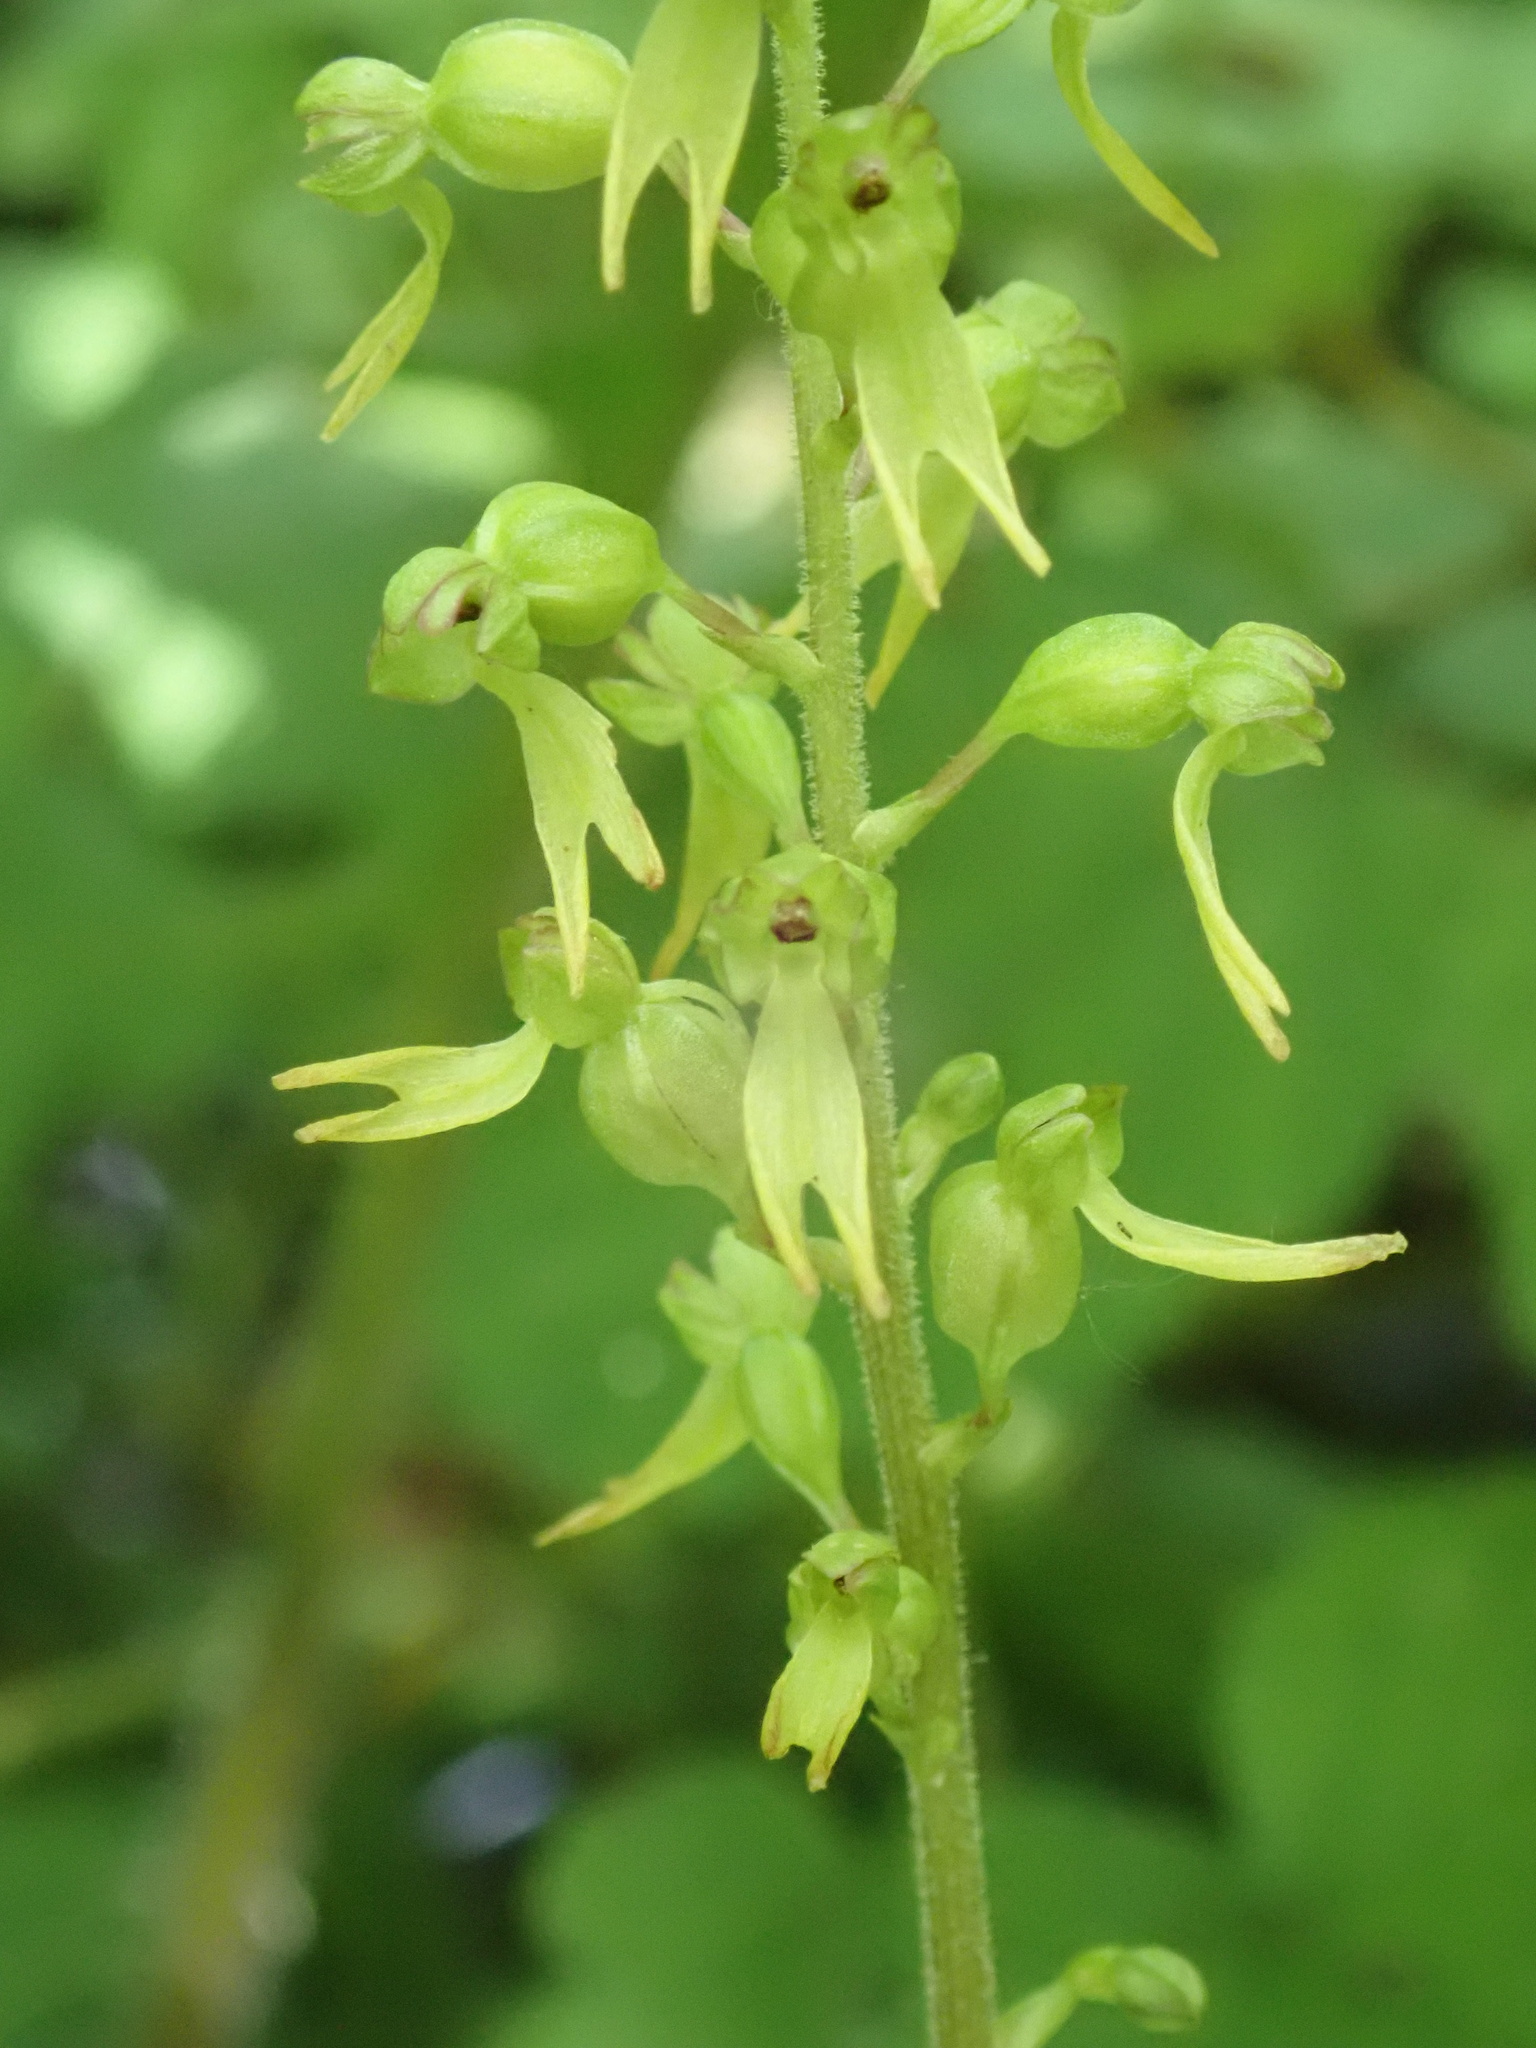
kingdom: Plantae
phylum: Tracheophyta
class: Liliopsida
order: Asparagales
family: Orchidaceae
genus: Neottia
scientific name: Neottia ovata
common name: Common twayblade
